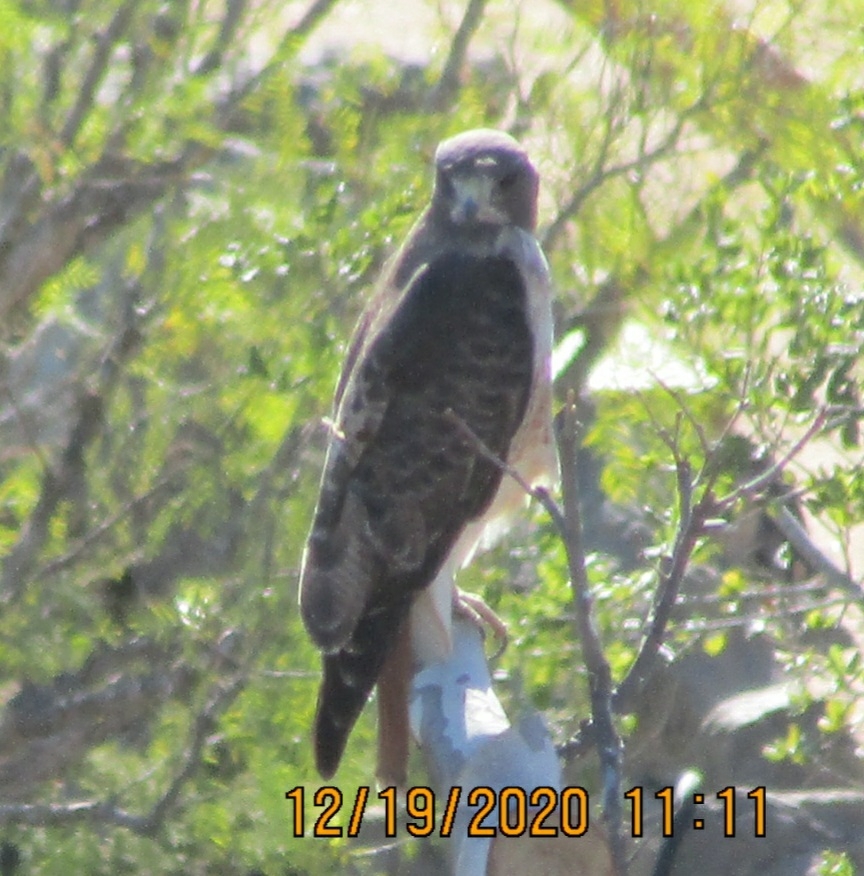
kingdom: Animalia
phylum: Chordata
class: Aves
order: Accipitriformes
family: Accipitridae
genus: Buteo
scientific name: Buteo jamaicensis
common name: Red-tailed hawk
